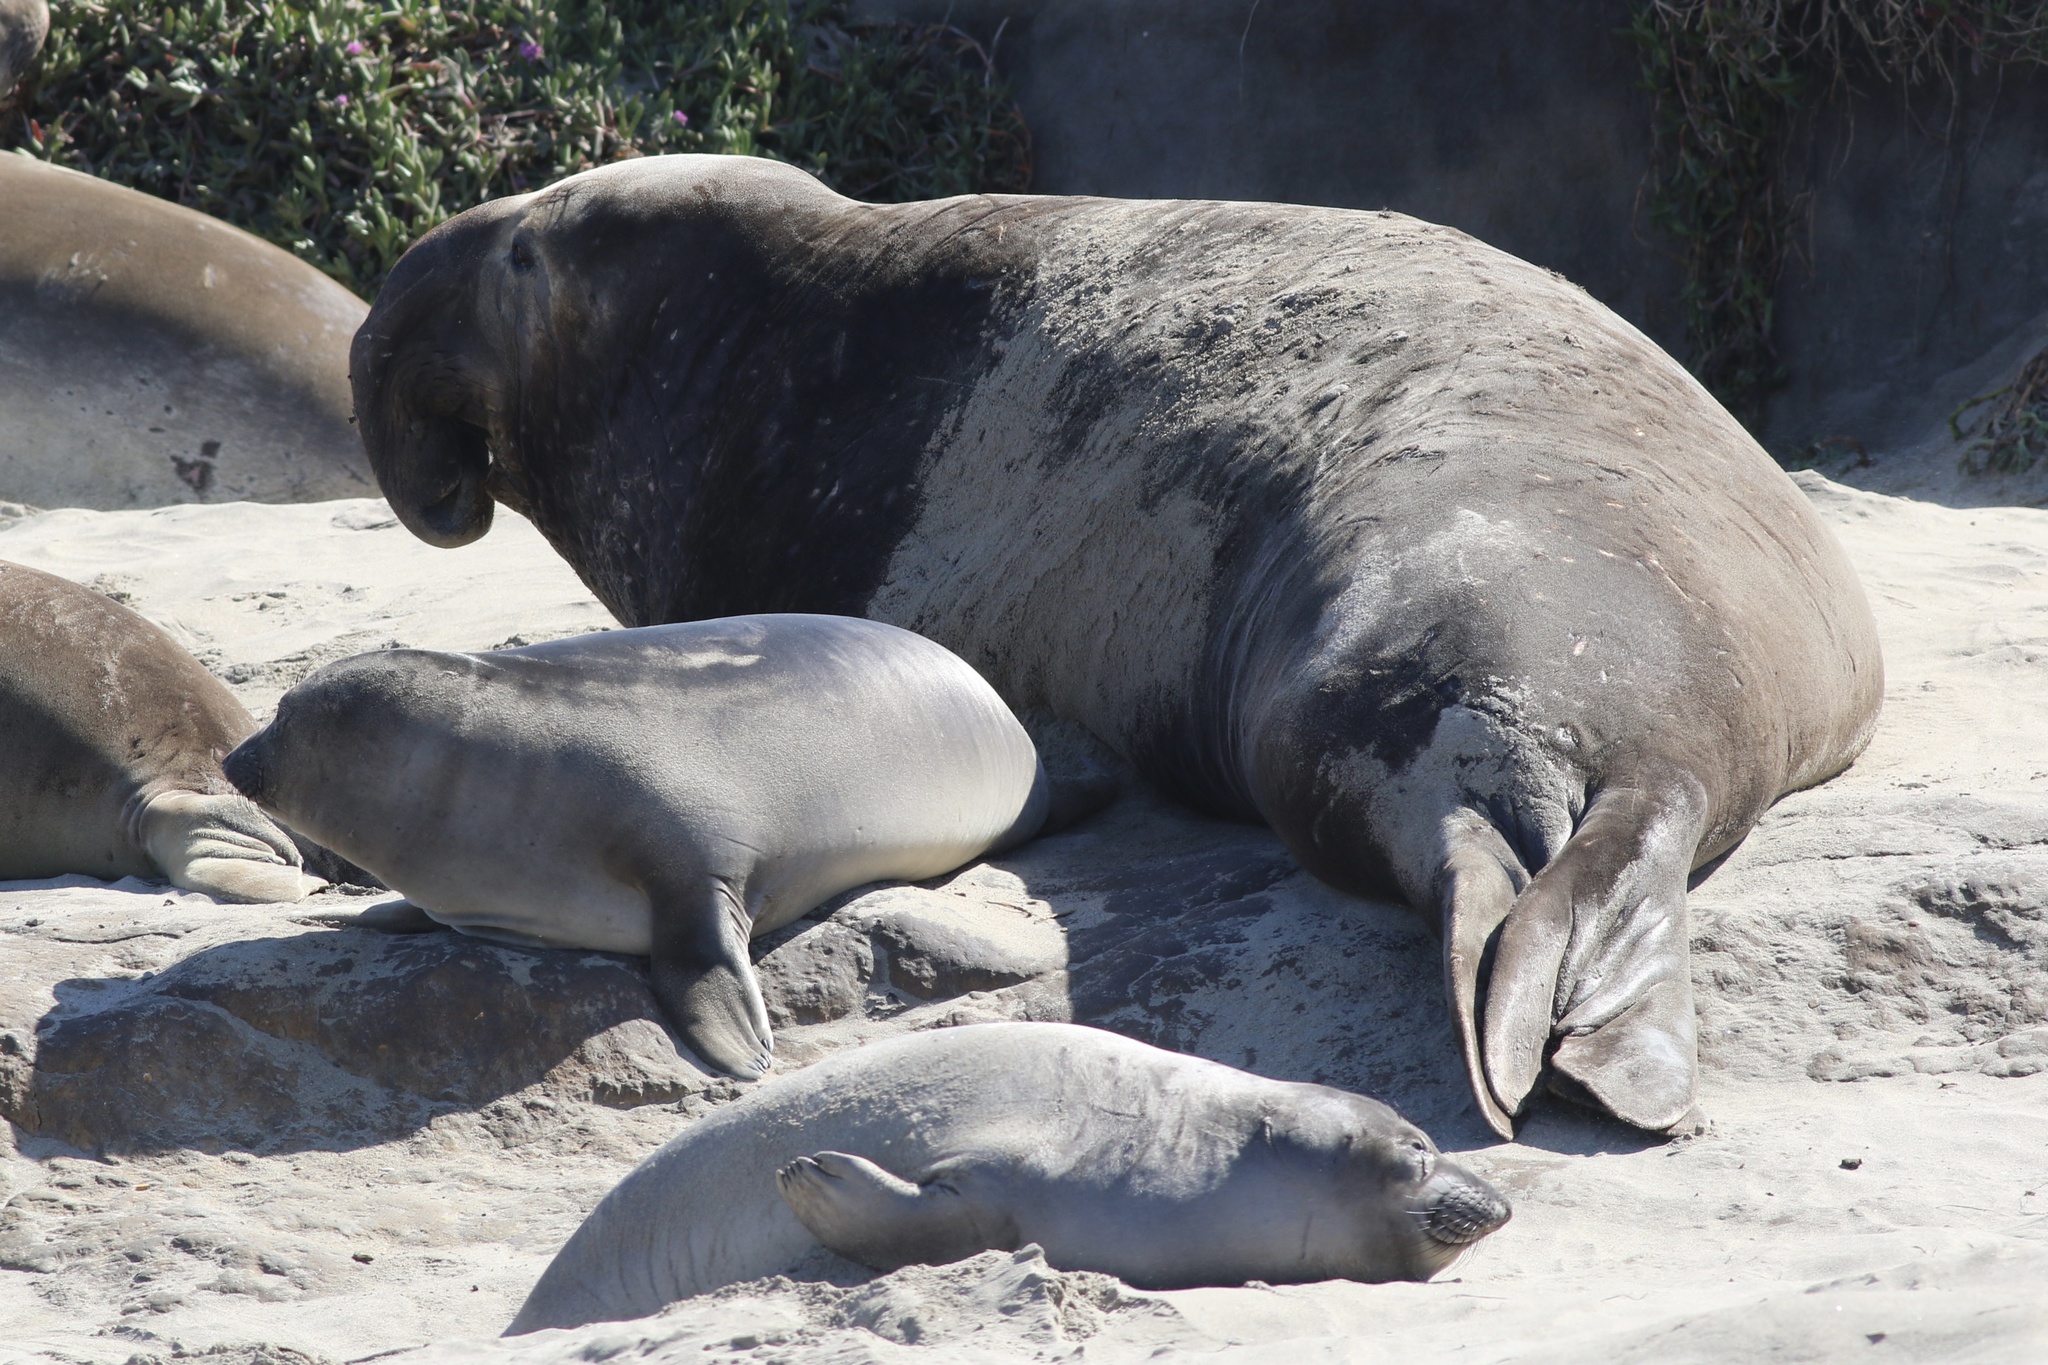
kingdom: Animalia
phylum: Chordata
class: Mammalia
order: Carnivora
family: Phocidae
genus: Mirounga
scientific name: Mirounga angustirostris
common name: Northern elephant seal
